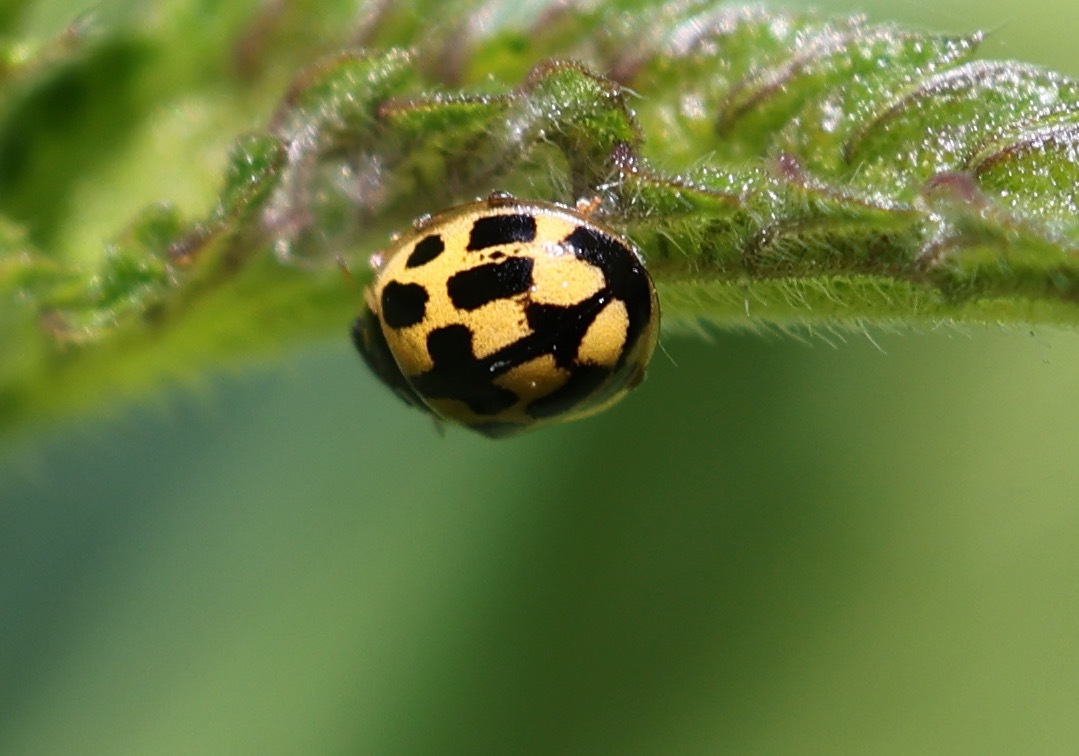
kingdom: Animalia
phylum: Arthropoda
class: Insecta
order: Coleoptera
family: Coccinellidae
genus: Propylaea
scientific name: Propylaea quatuordecimpunctata
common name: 14-spotted ladybird beetle
